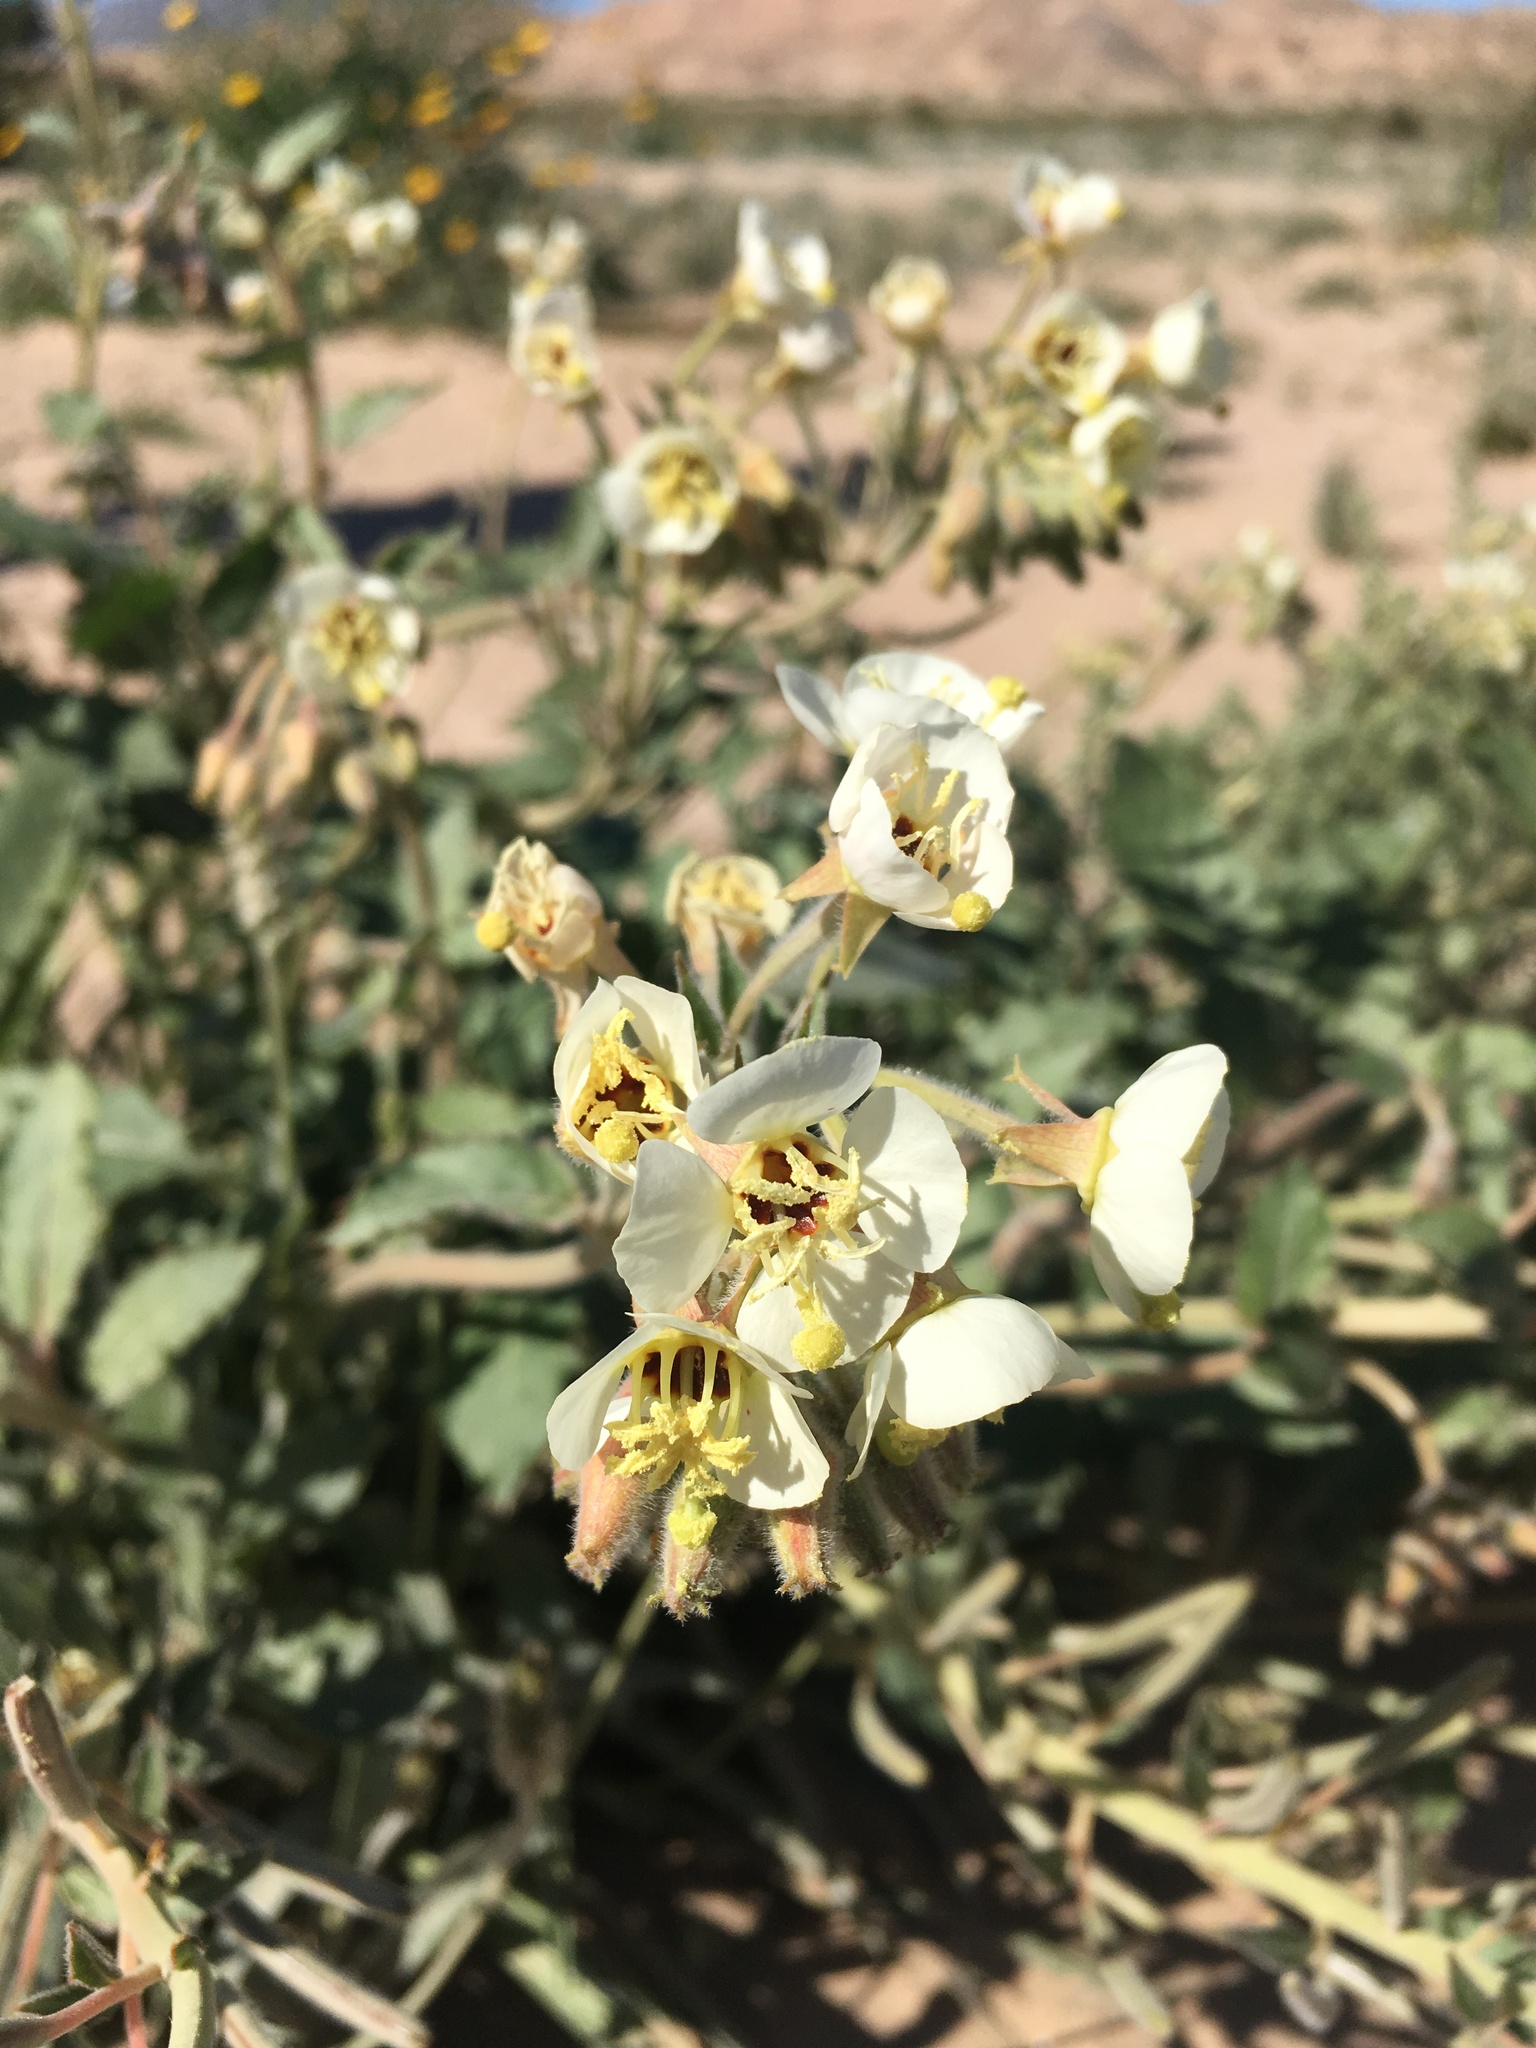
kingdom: Plantae
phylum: Tracheophyta
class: Magnoliopsida
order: Myrtales
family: Onagraceae
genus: Chylismia
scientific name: Chylismia claviformis
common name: Browneyes
